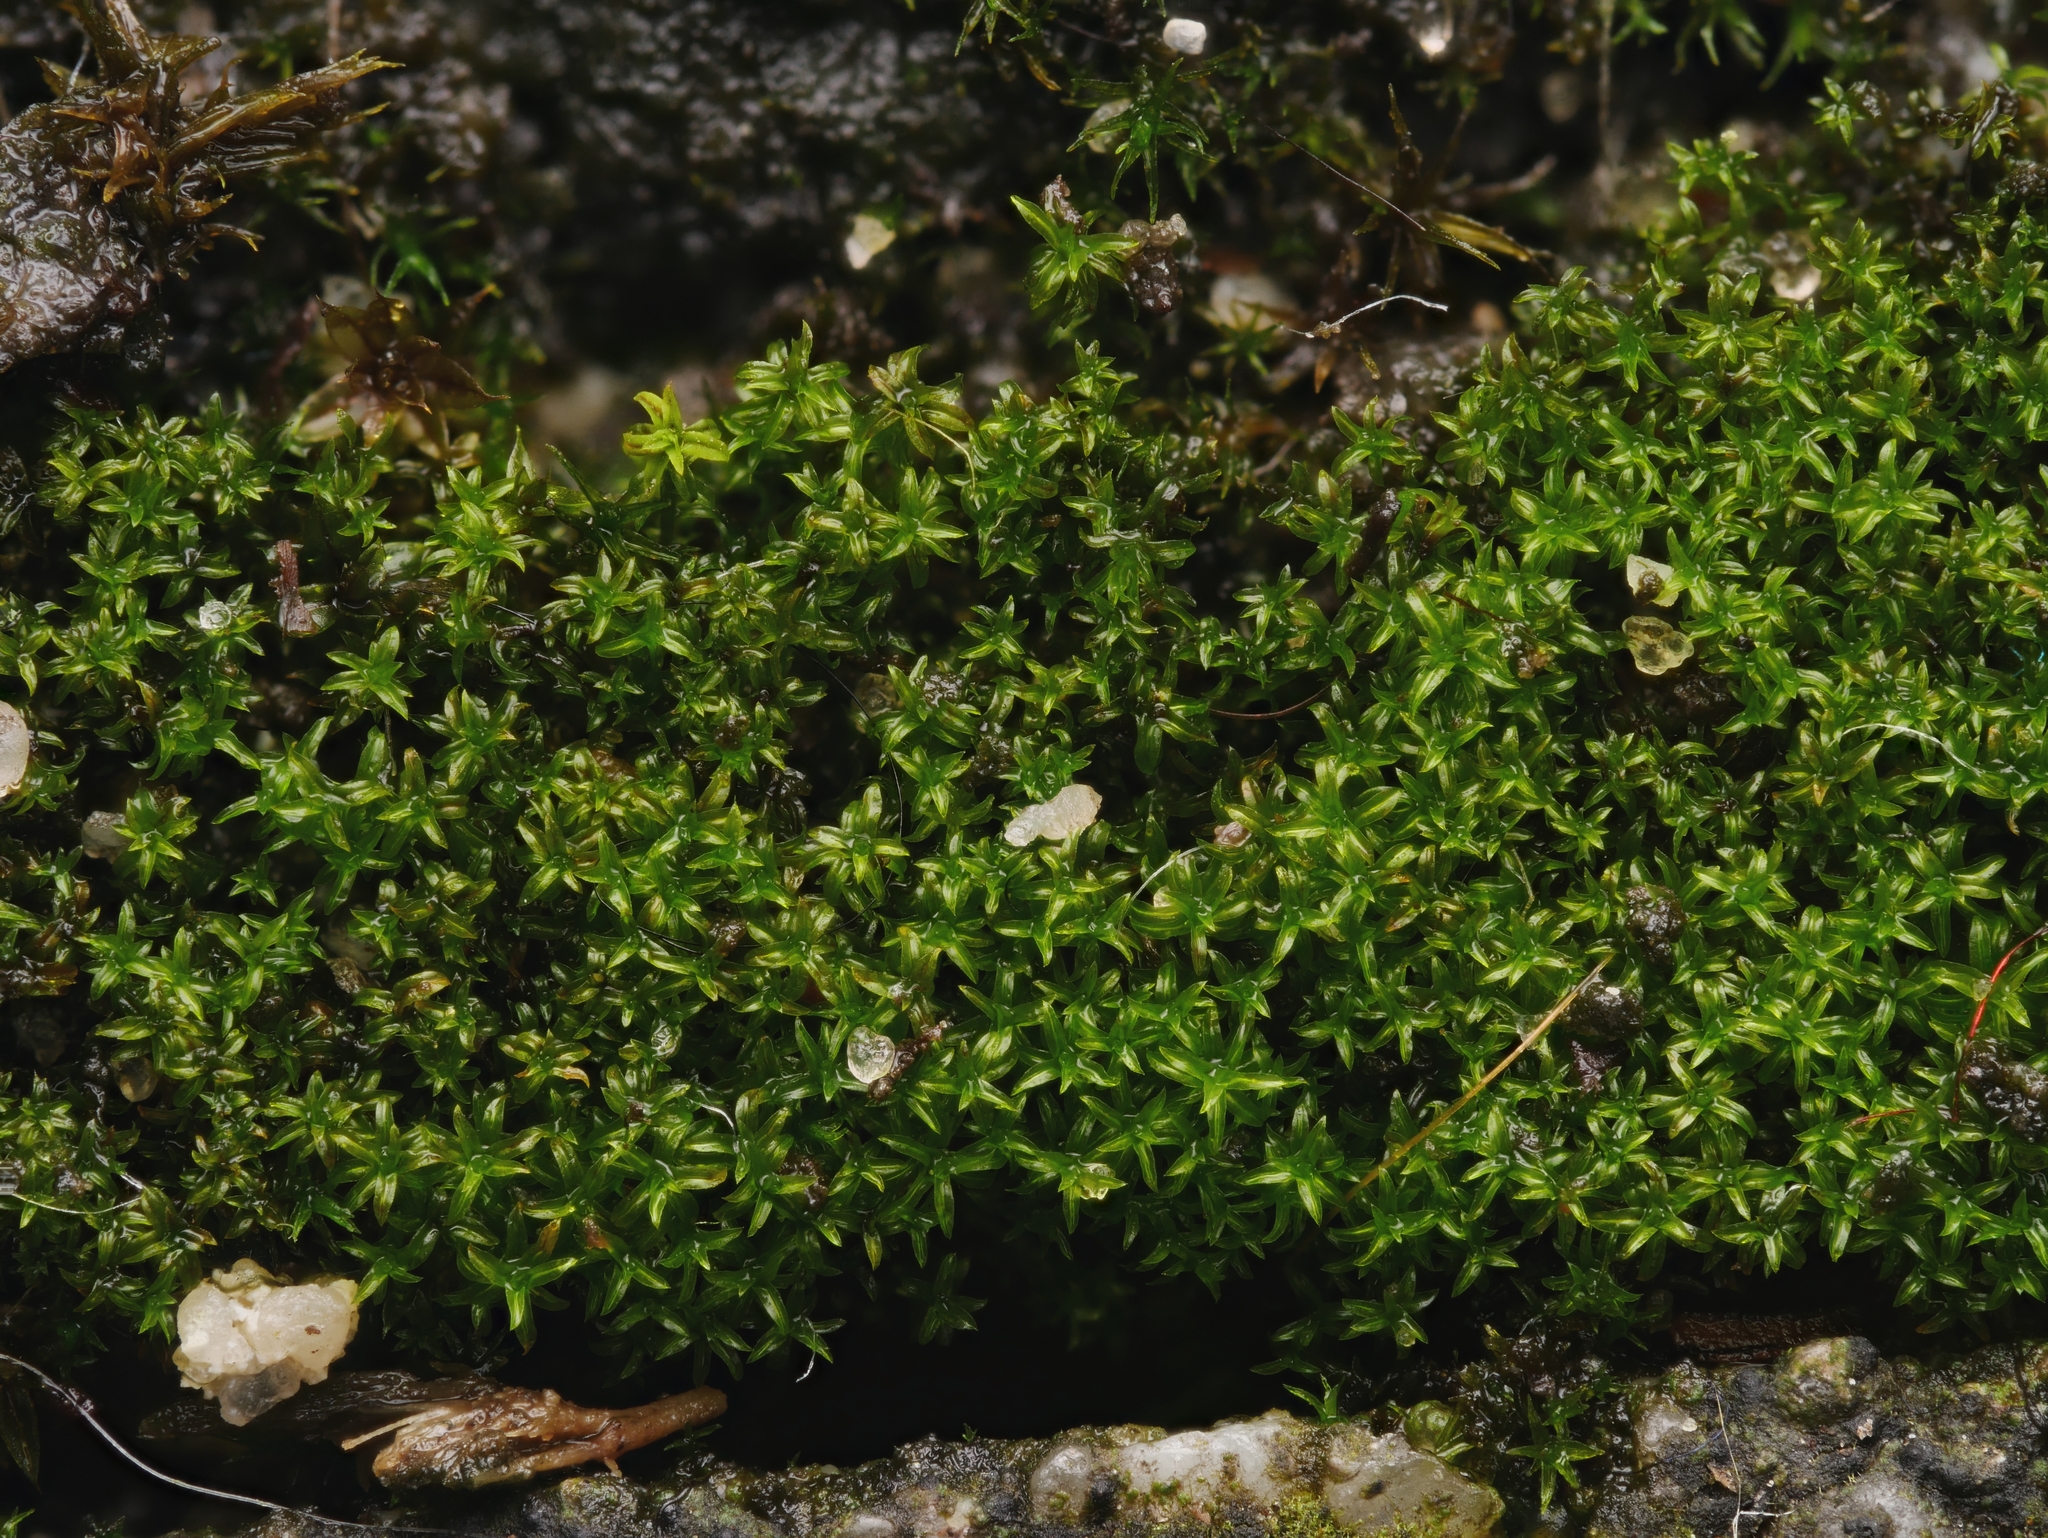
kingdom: Plantae
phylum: Bryophyta
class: Bryopsida
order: Pottiales
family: Pottiaceae
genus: Barbula
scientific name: Barbula unguiculata
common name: Prickly beard moss
